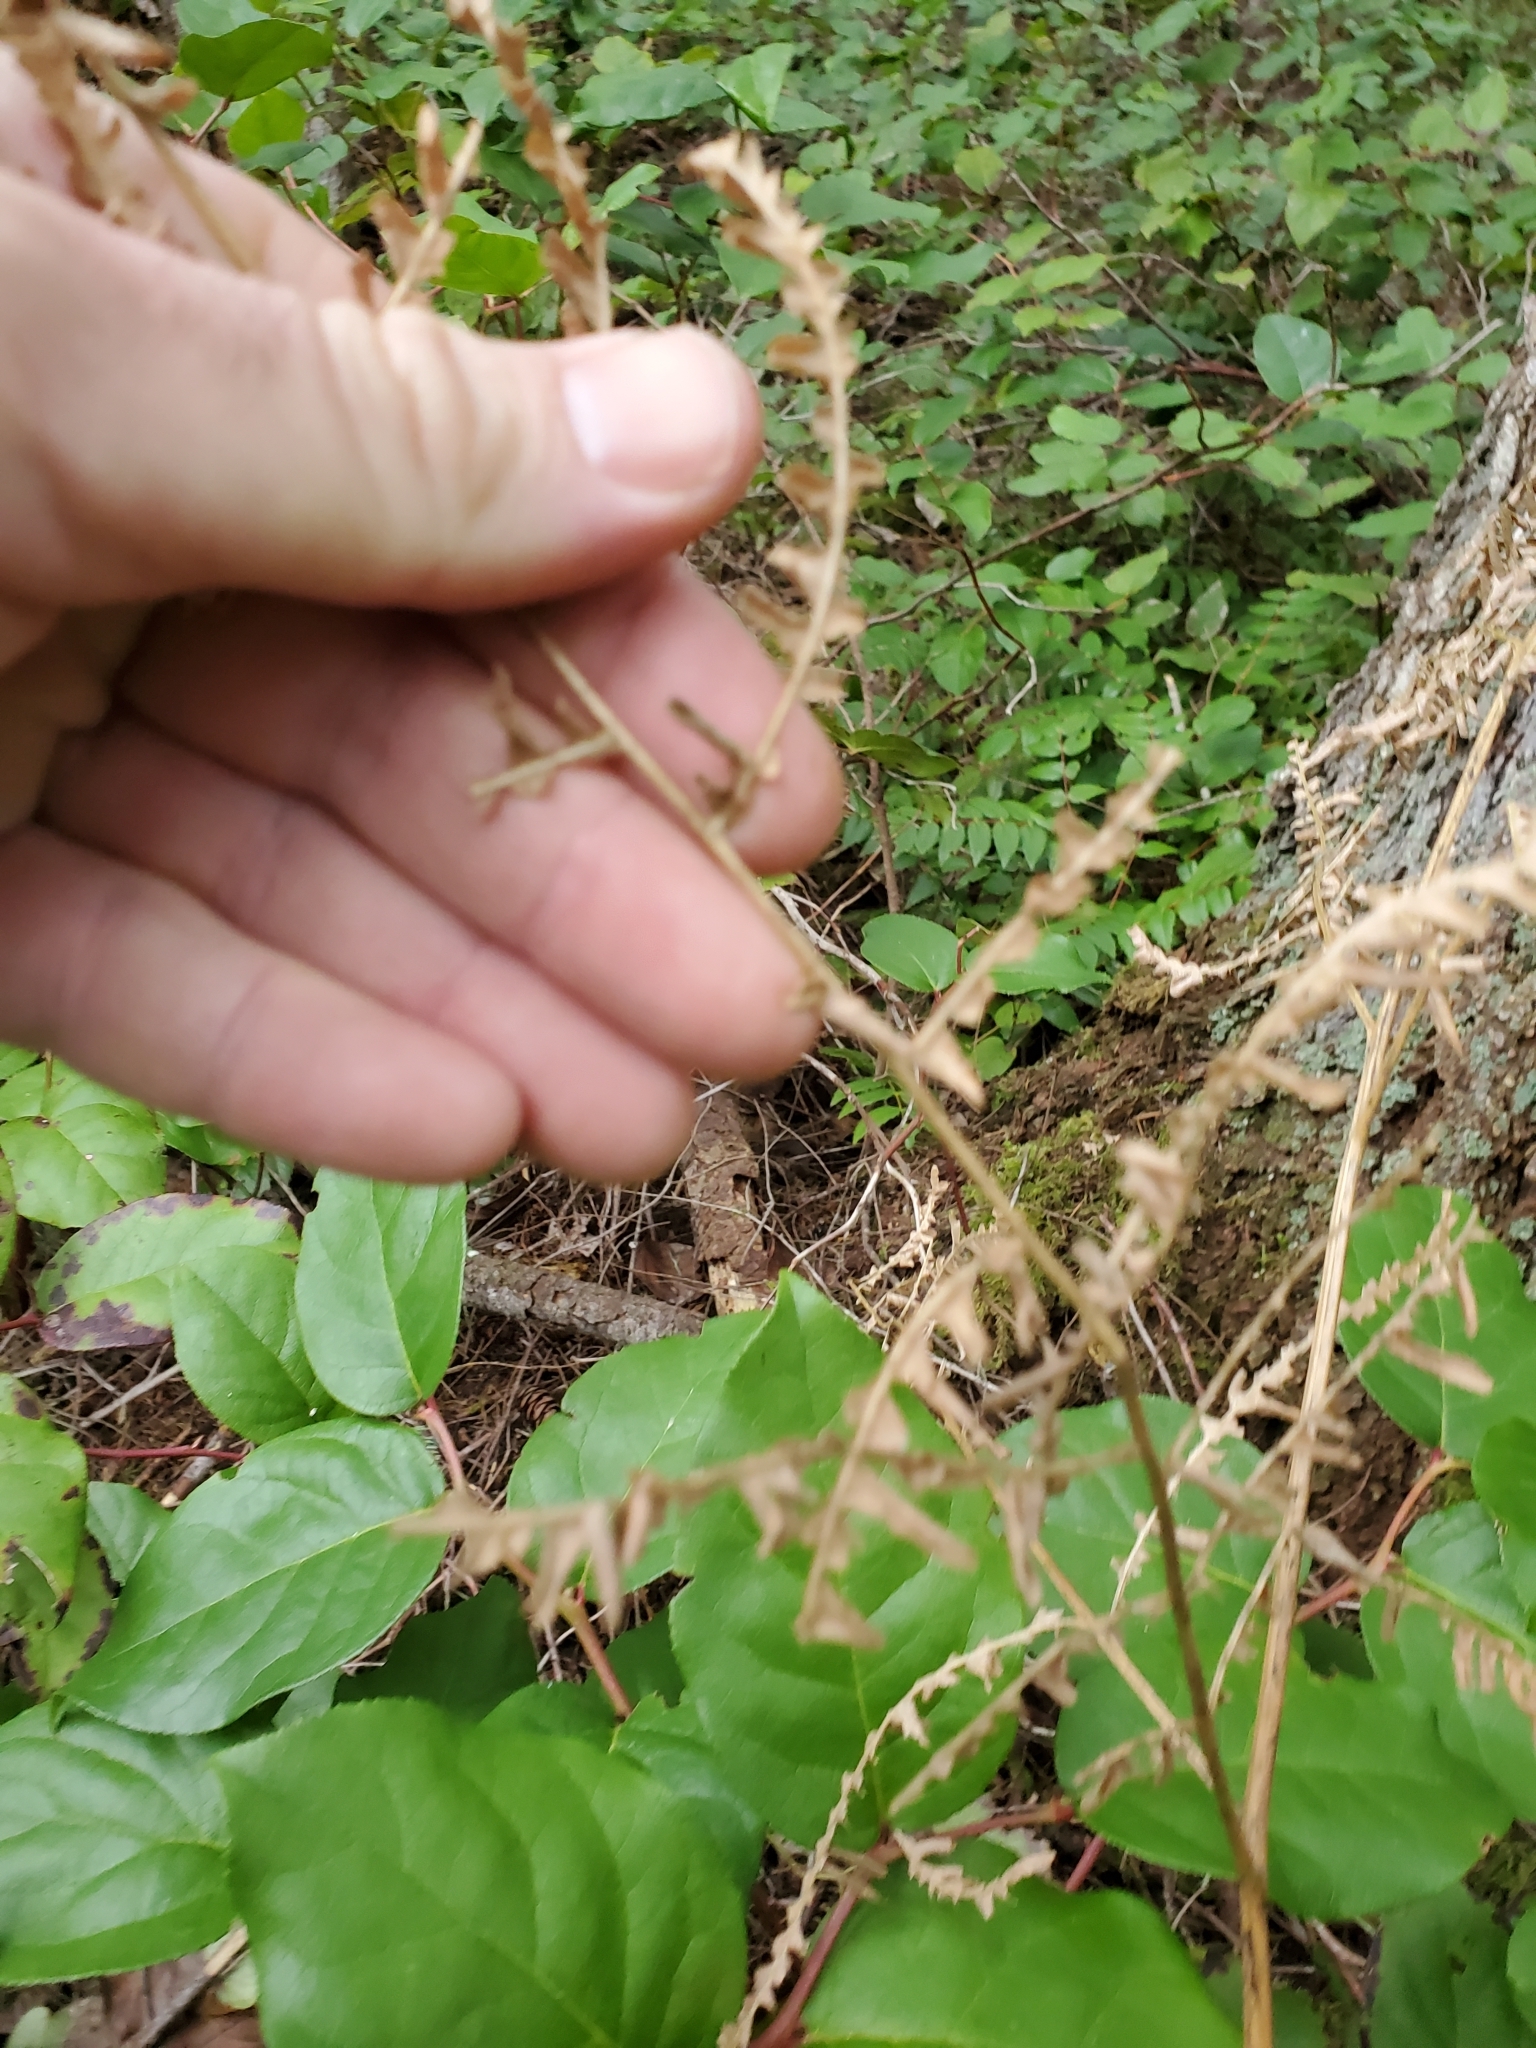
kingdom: Plantae
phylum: Tracheophyta
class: Polypodiopsida
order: Polypodiales
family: Dennstaedtiaceae
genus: Pteridium
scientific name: Pteridium aquilinum
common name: Bracken
